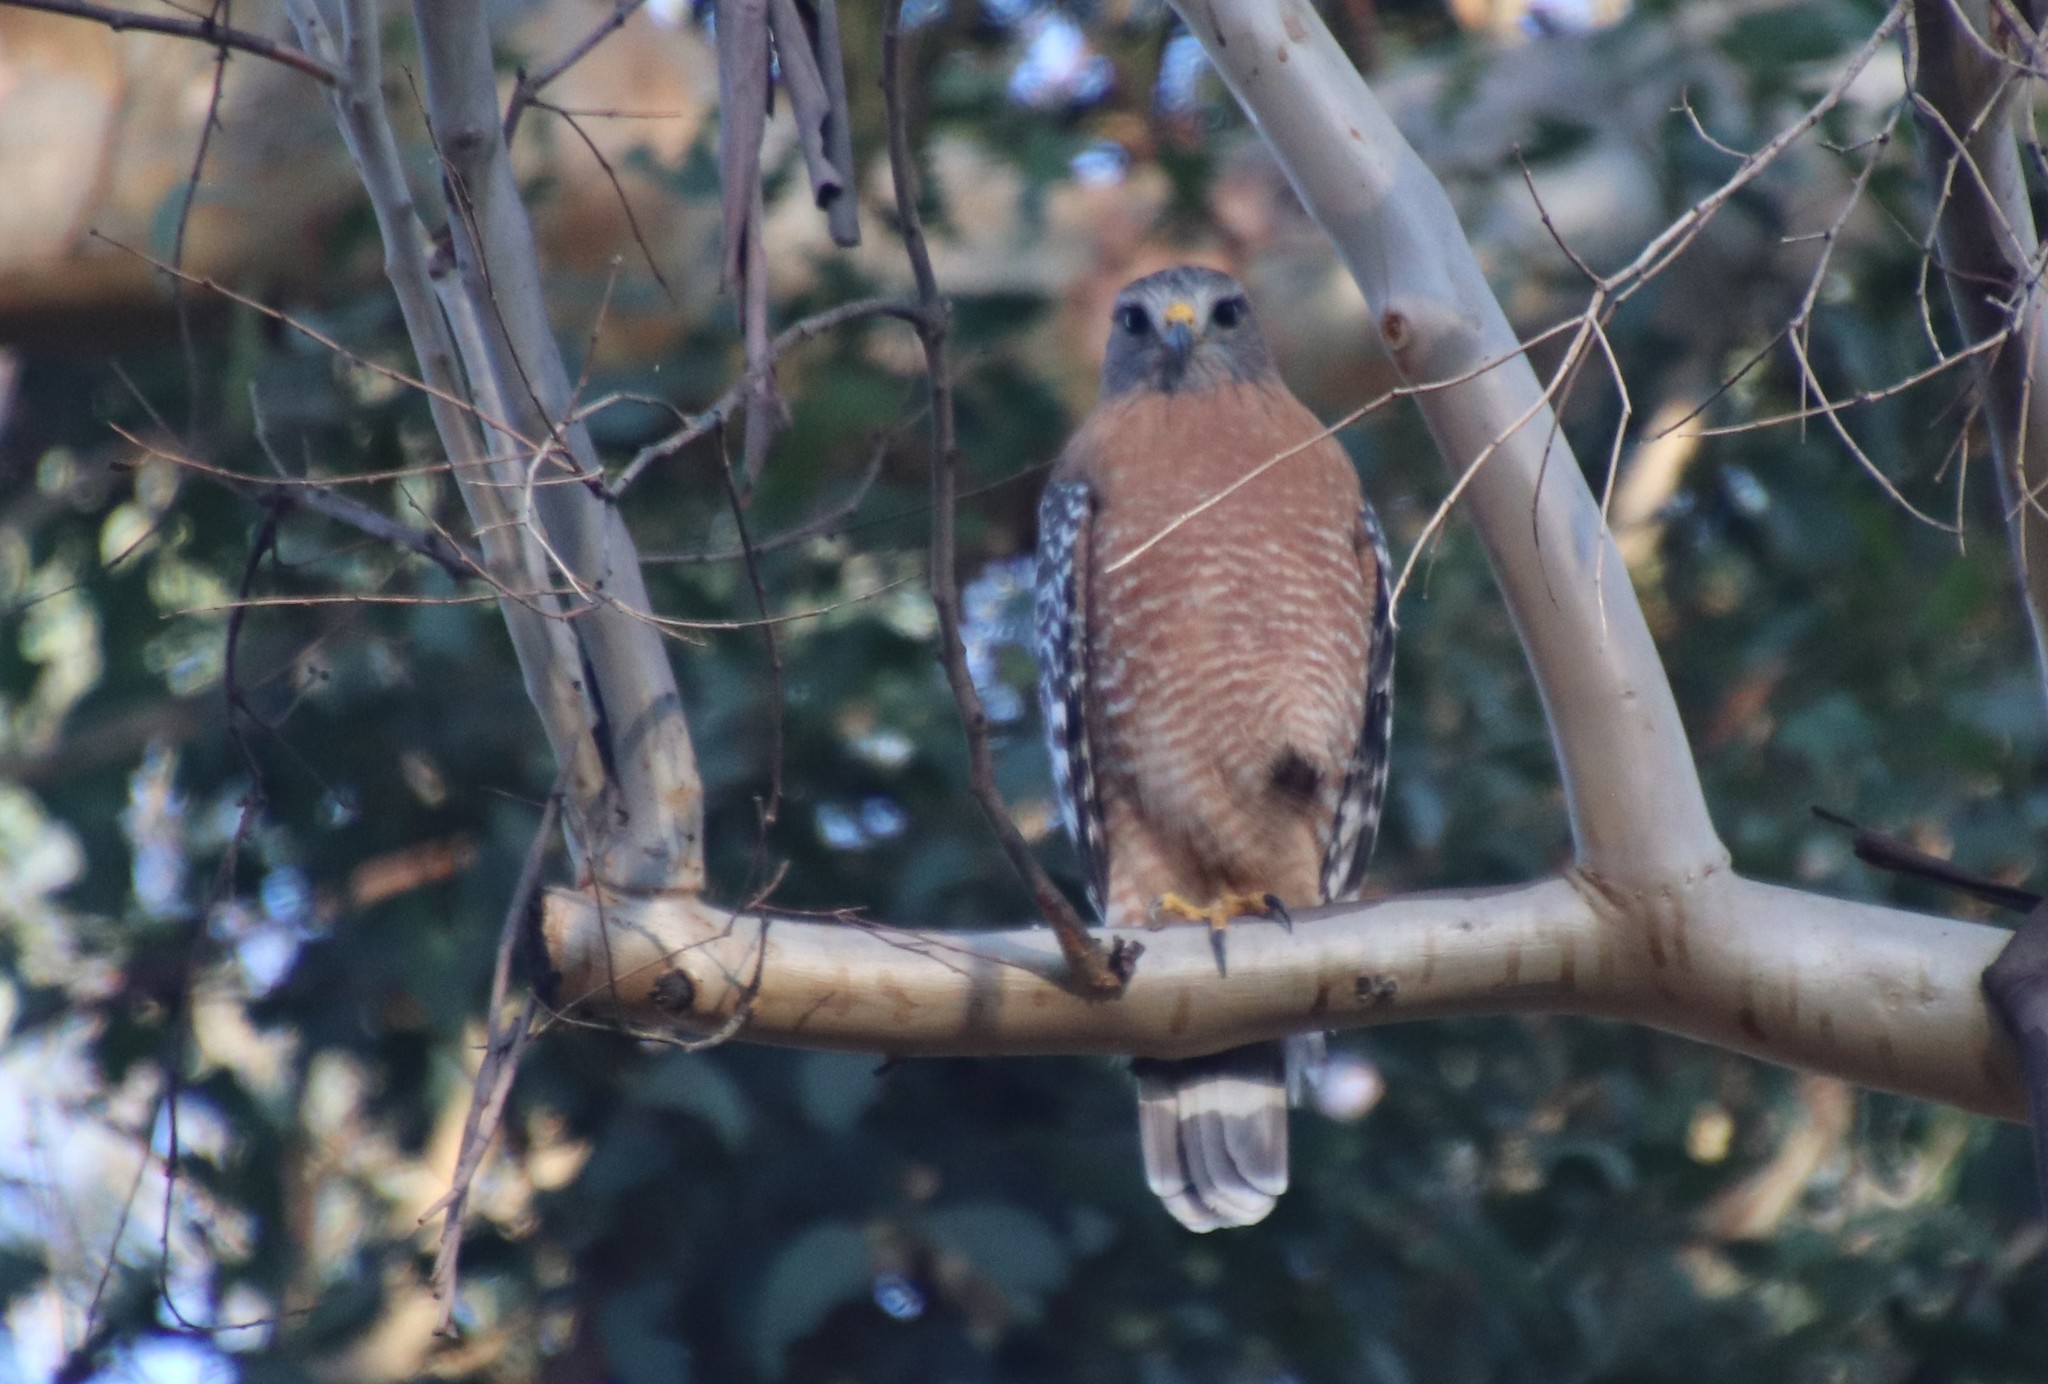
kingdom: Animalia
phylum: Chordata
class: Aves
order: Accipitriformes
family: Accipitridae
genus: Buteo
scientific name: Buteo lineatus
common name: Red-shouldered hawk
